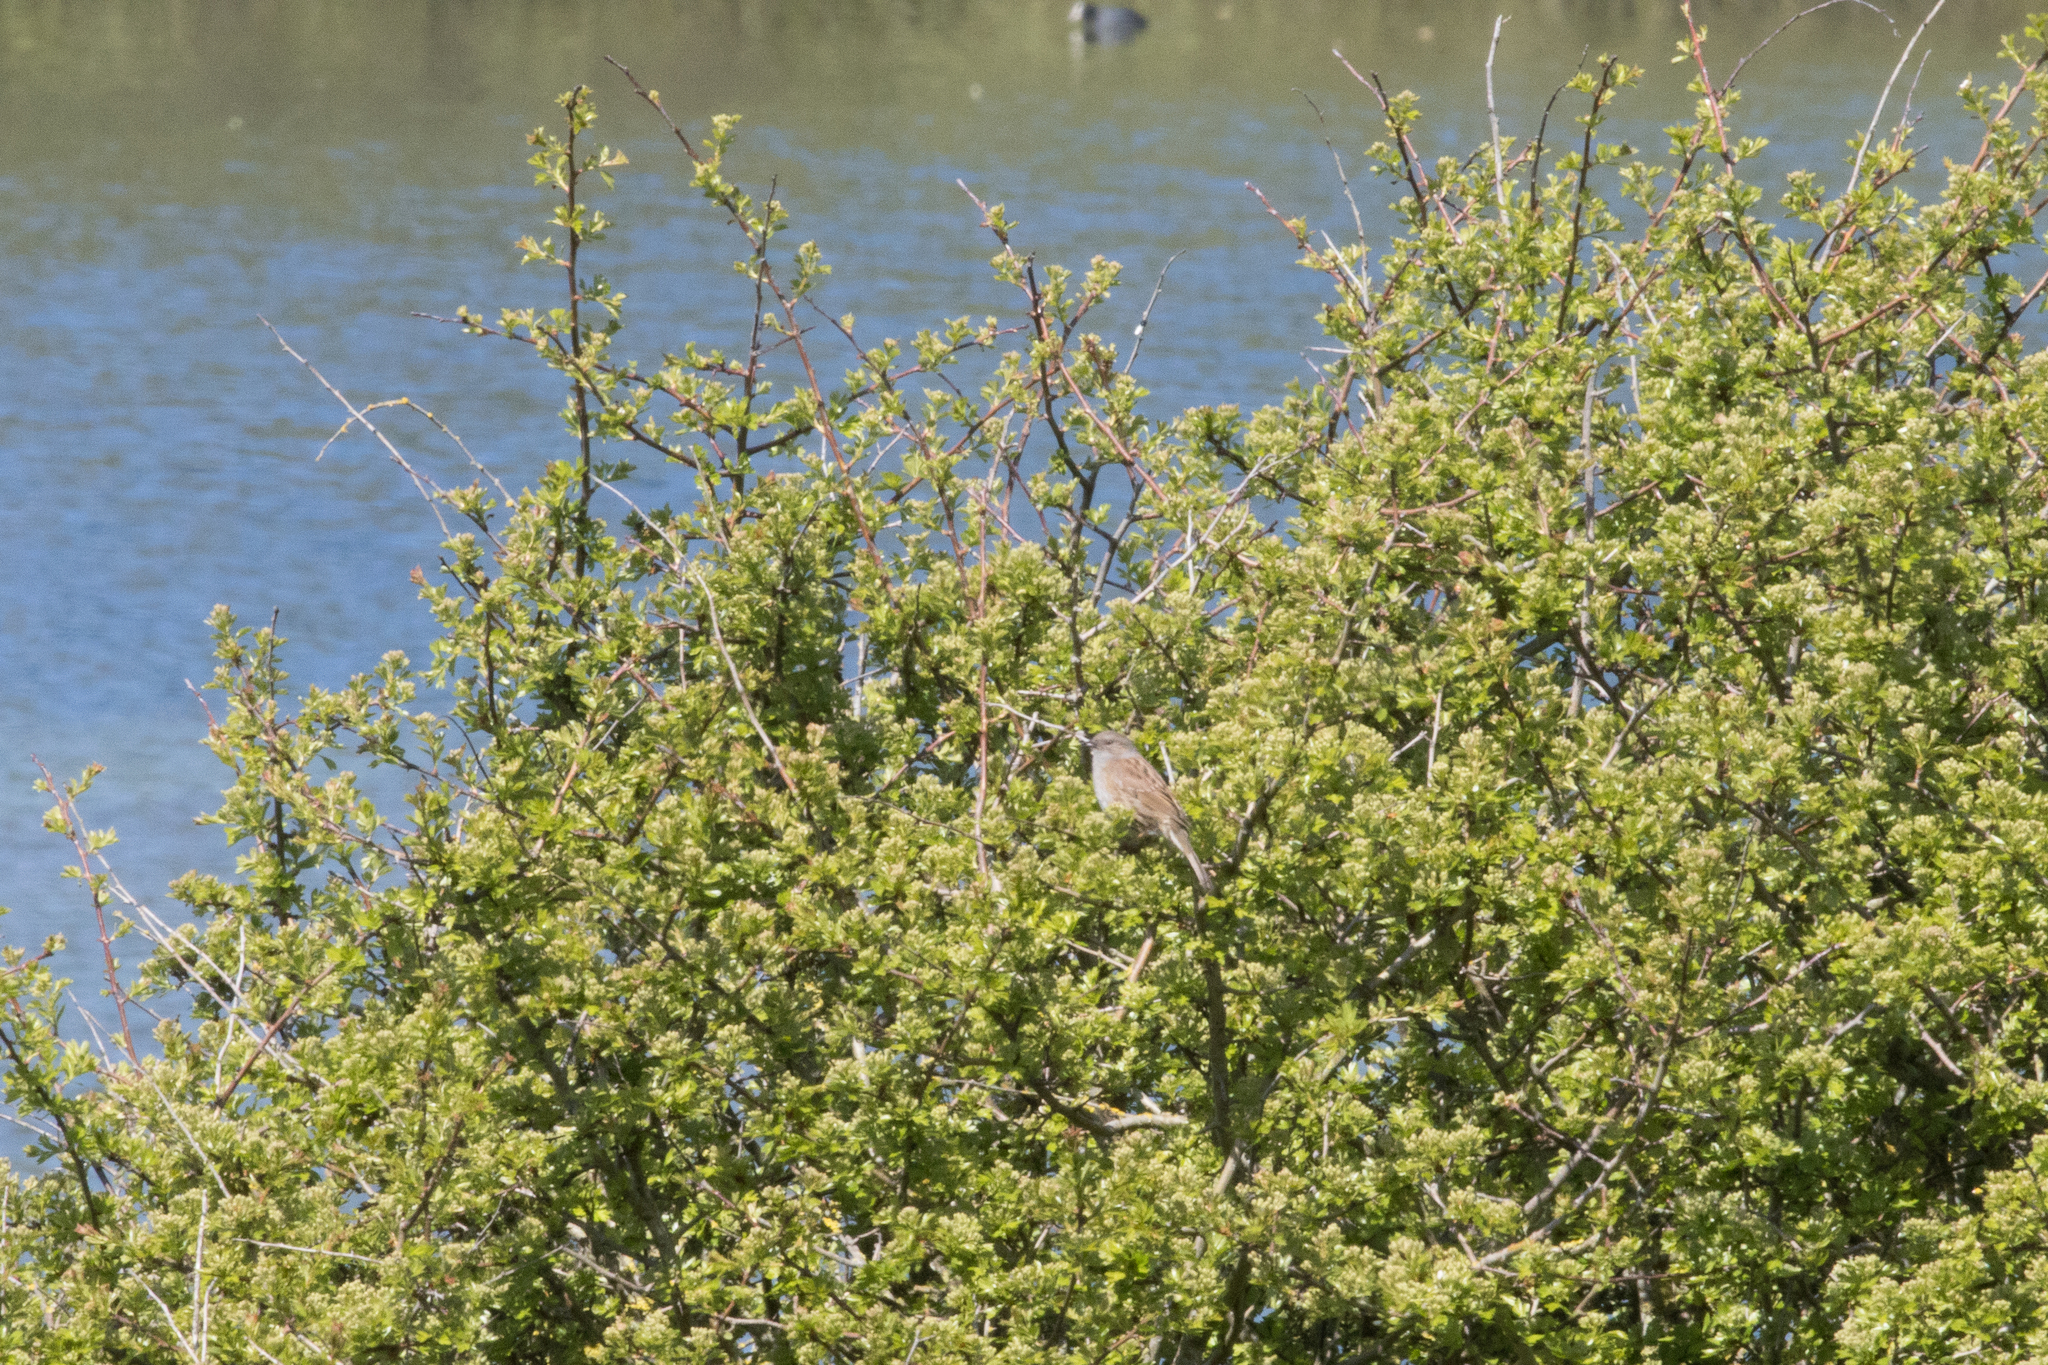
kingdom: Animalia
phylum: Chordata
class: Aves
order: Passeriformes
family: Prunellidae
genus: Prunella
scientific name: Prunella modularis
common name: Dunnock
